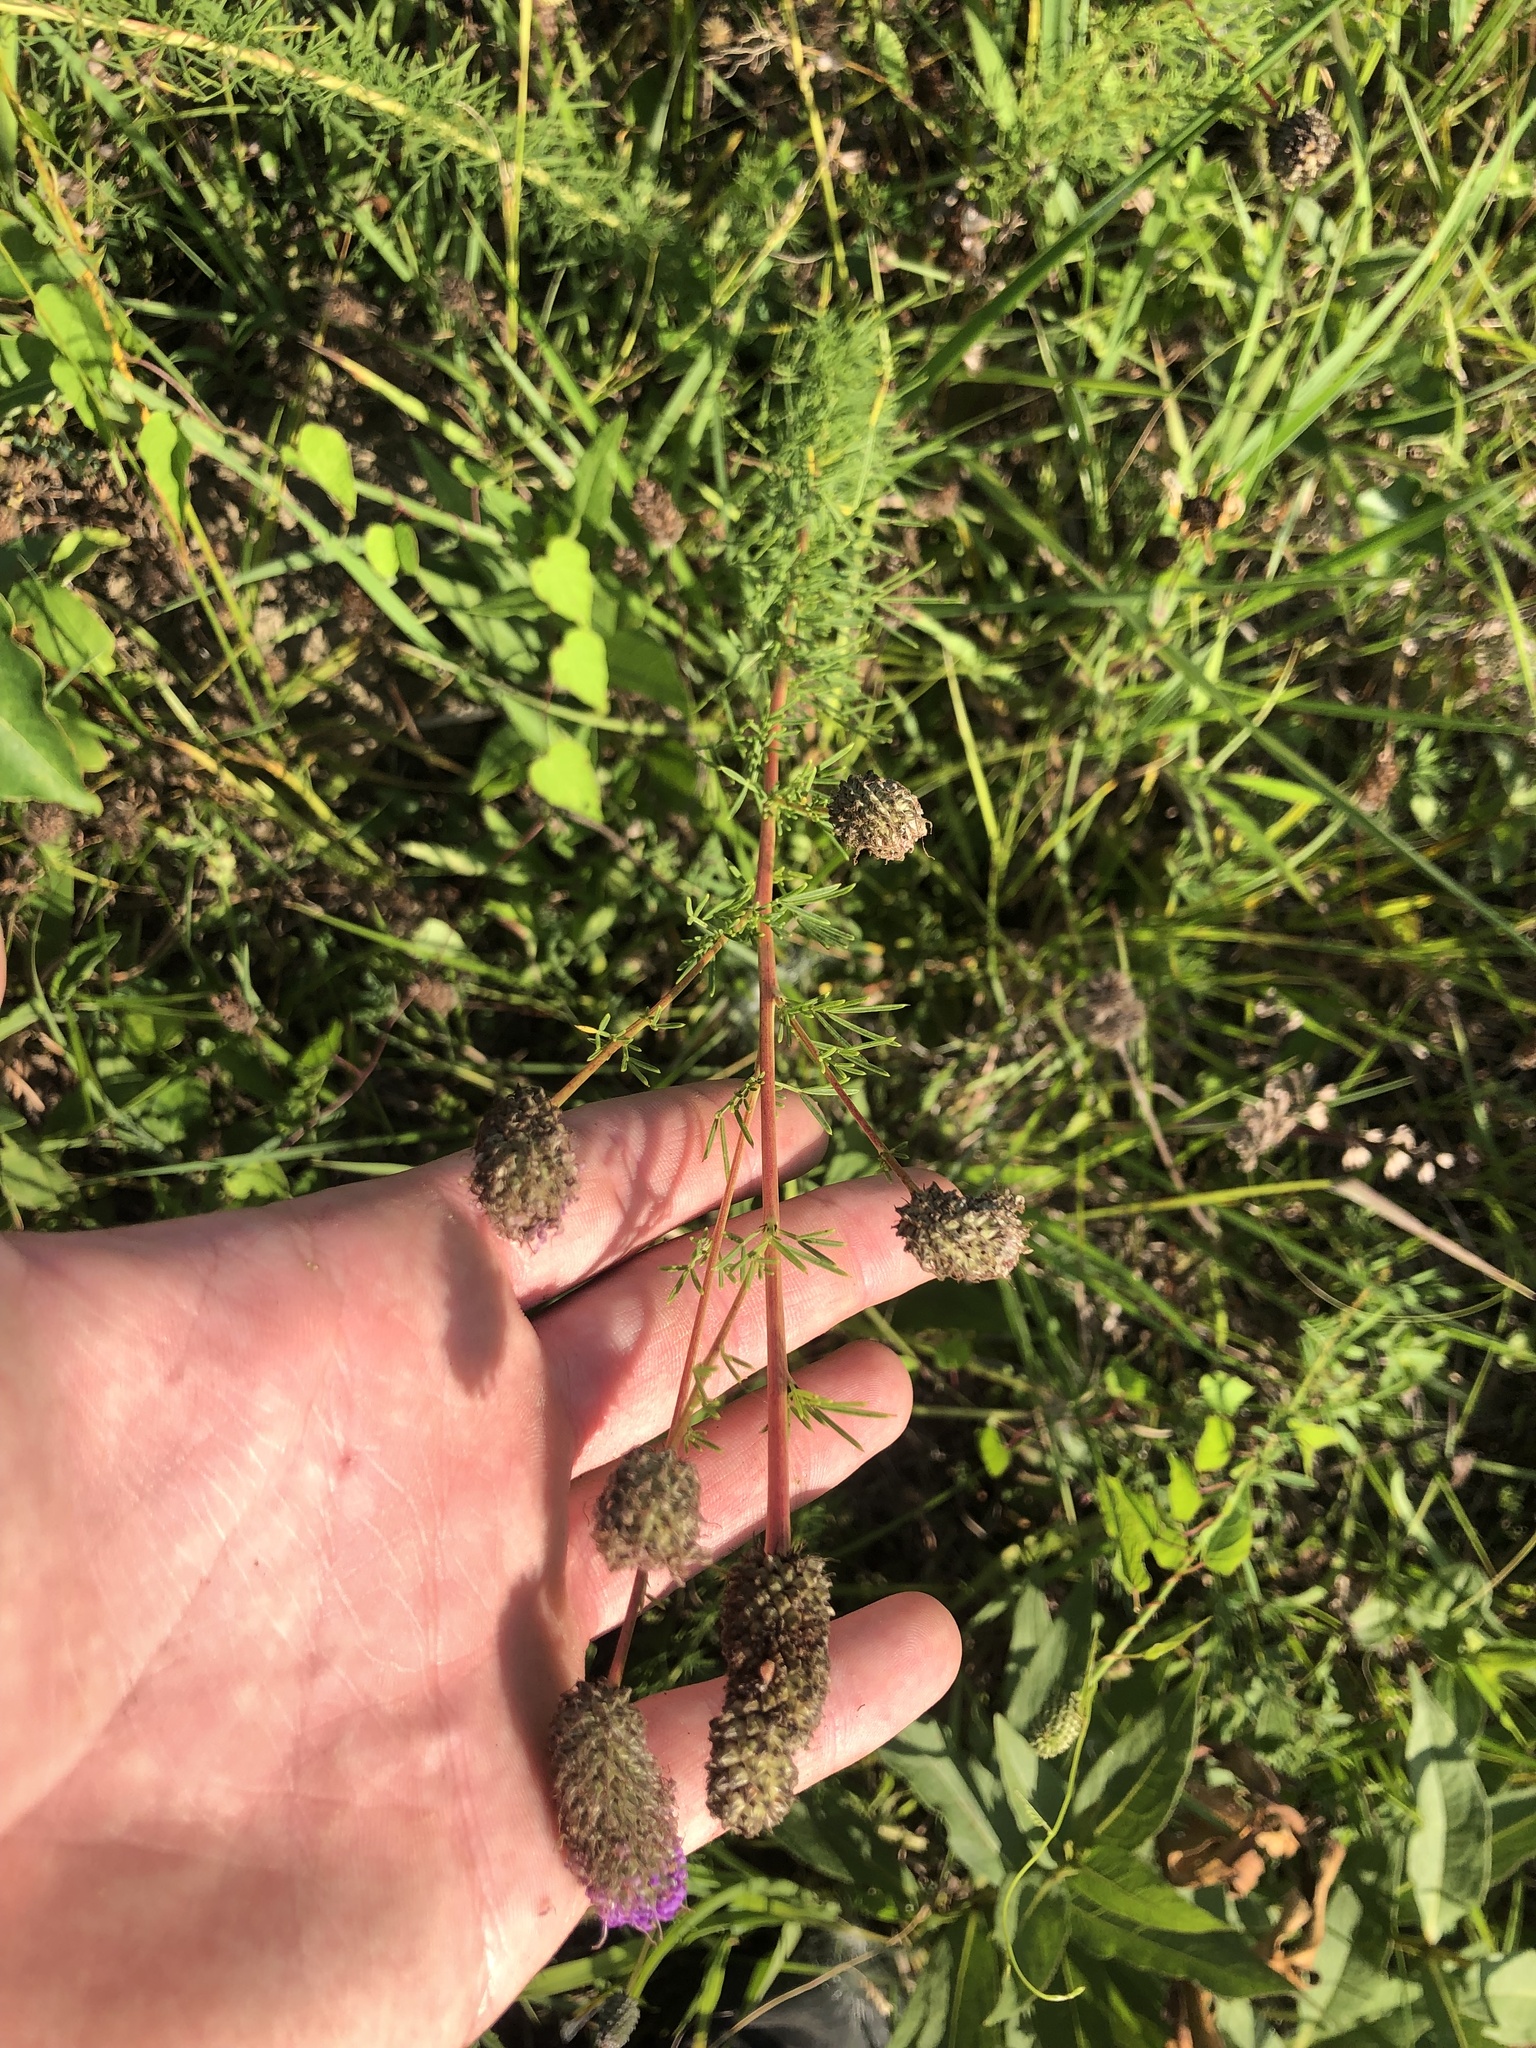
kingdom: Plantae
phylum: Tracheophyta
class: Magnoliopsida
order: Fabales
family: Fabaceae
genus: Dalea
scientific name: Dalea purpurea
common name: Purple prairie-clover
